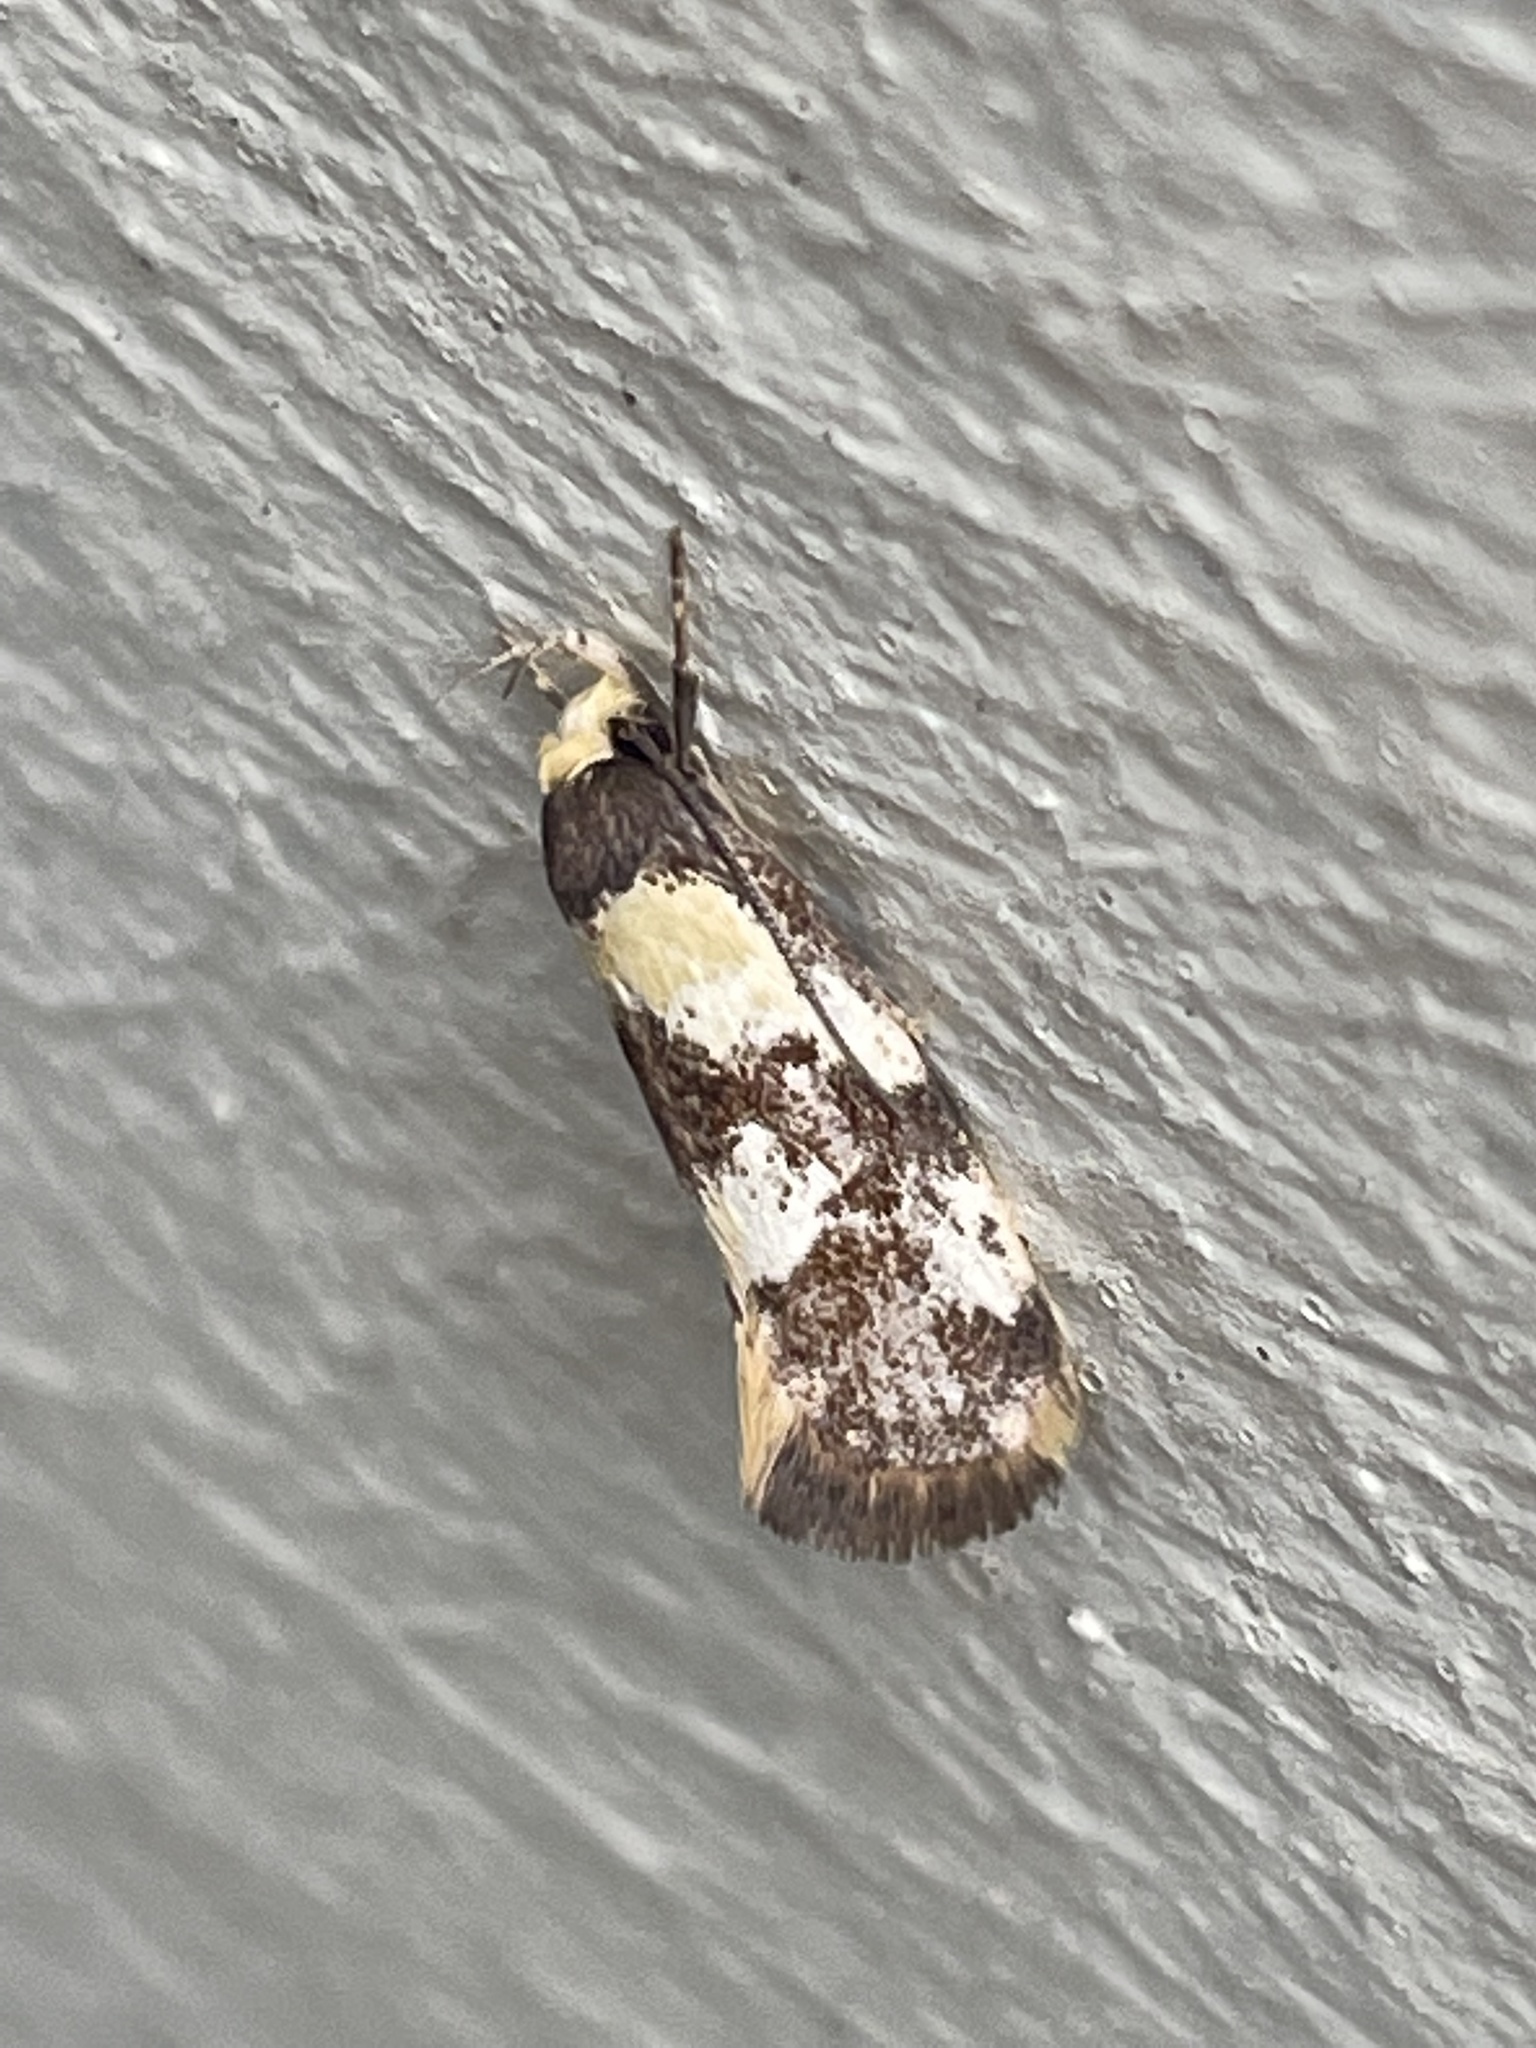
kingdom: Animalia
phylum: Arthropoda
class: Insecta
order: Lepidoptera
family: Oecophoridae
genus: Eulechria
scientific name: Eulechria marmorata
